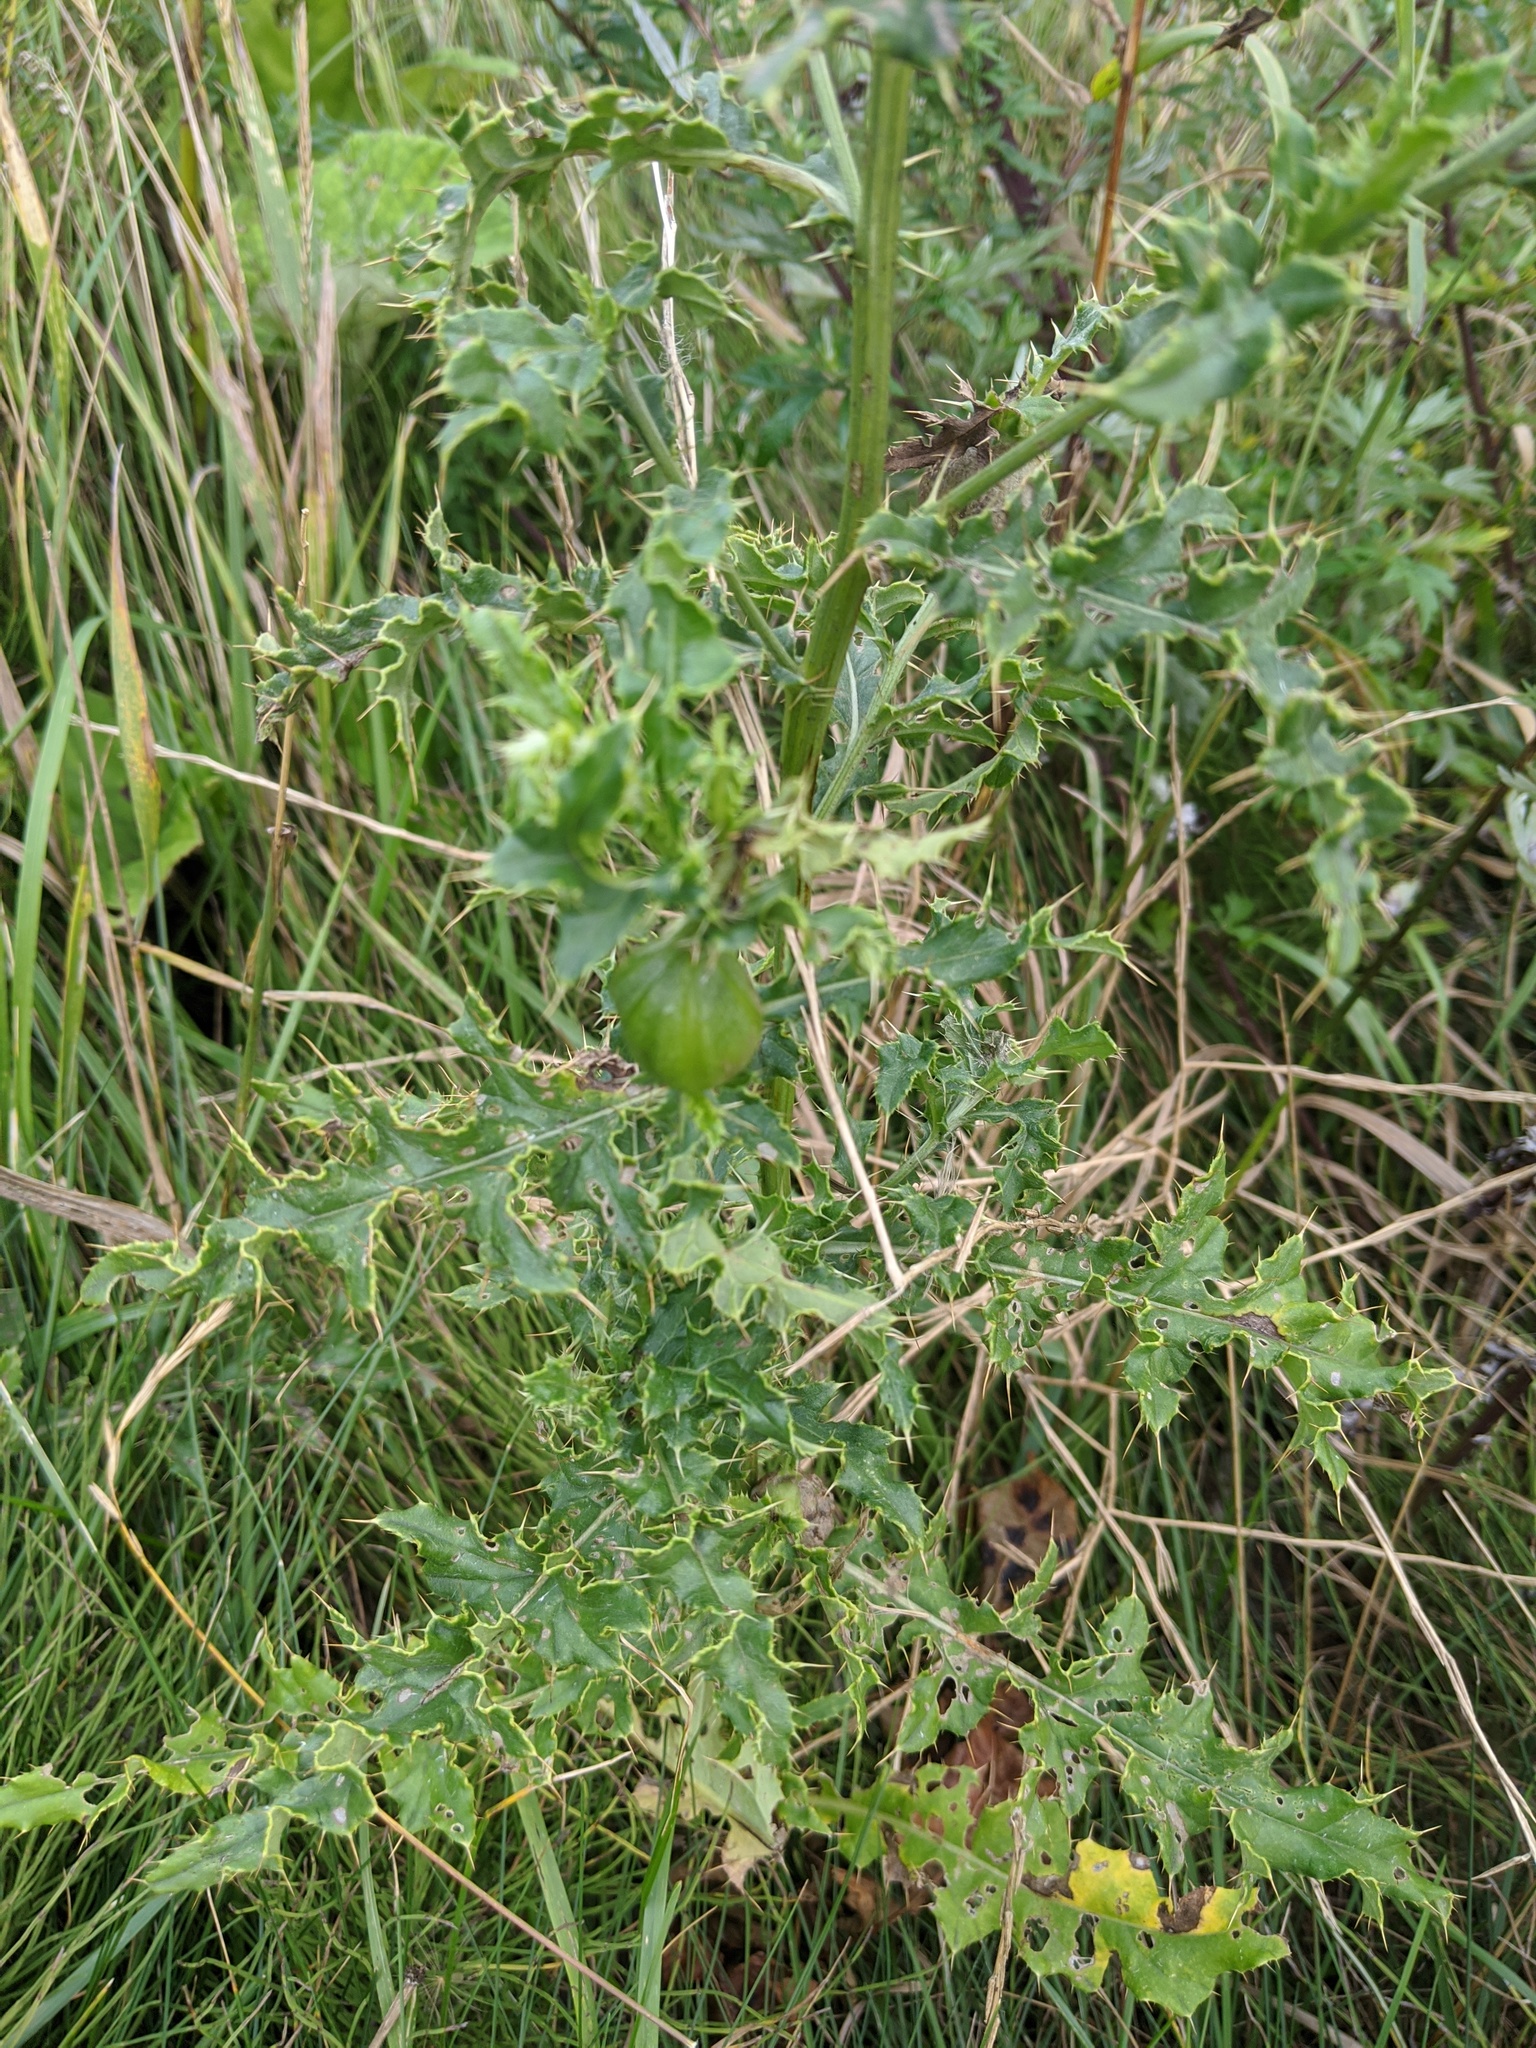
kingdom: Animalia
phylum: Arthropoda
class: Insecta
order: Diptera
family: Tephritidae
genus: Urophora
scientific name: Urophora cardui
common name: Fruit fly
